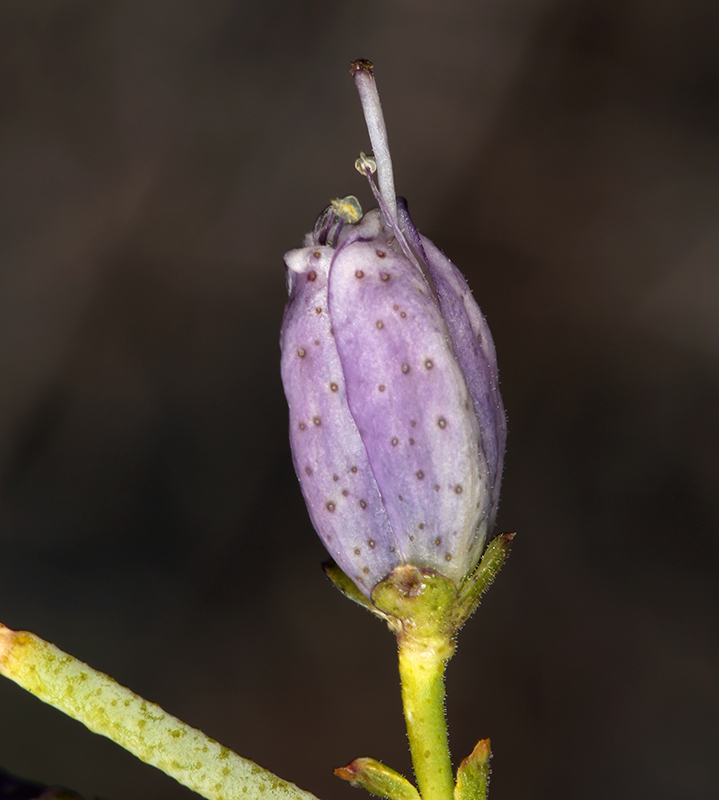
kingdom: Plantae
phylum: Tracheophyta
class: Magnoliopsida
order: Sapindales
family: Rutaceae
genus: Thamnosma
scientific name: Thamnosma montana
